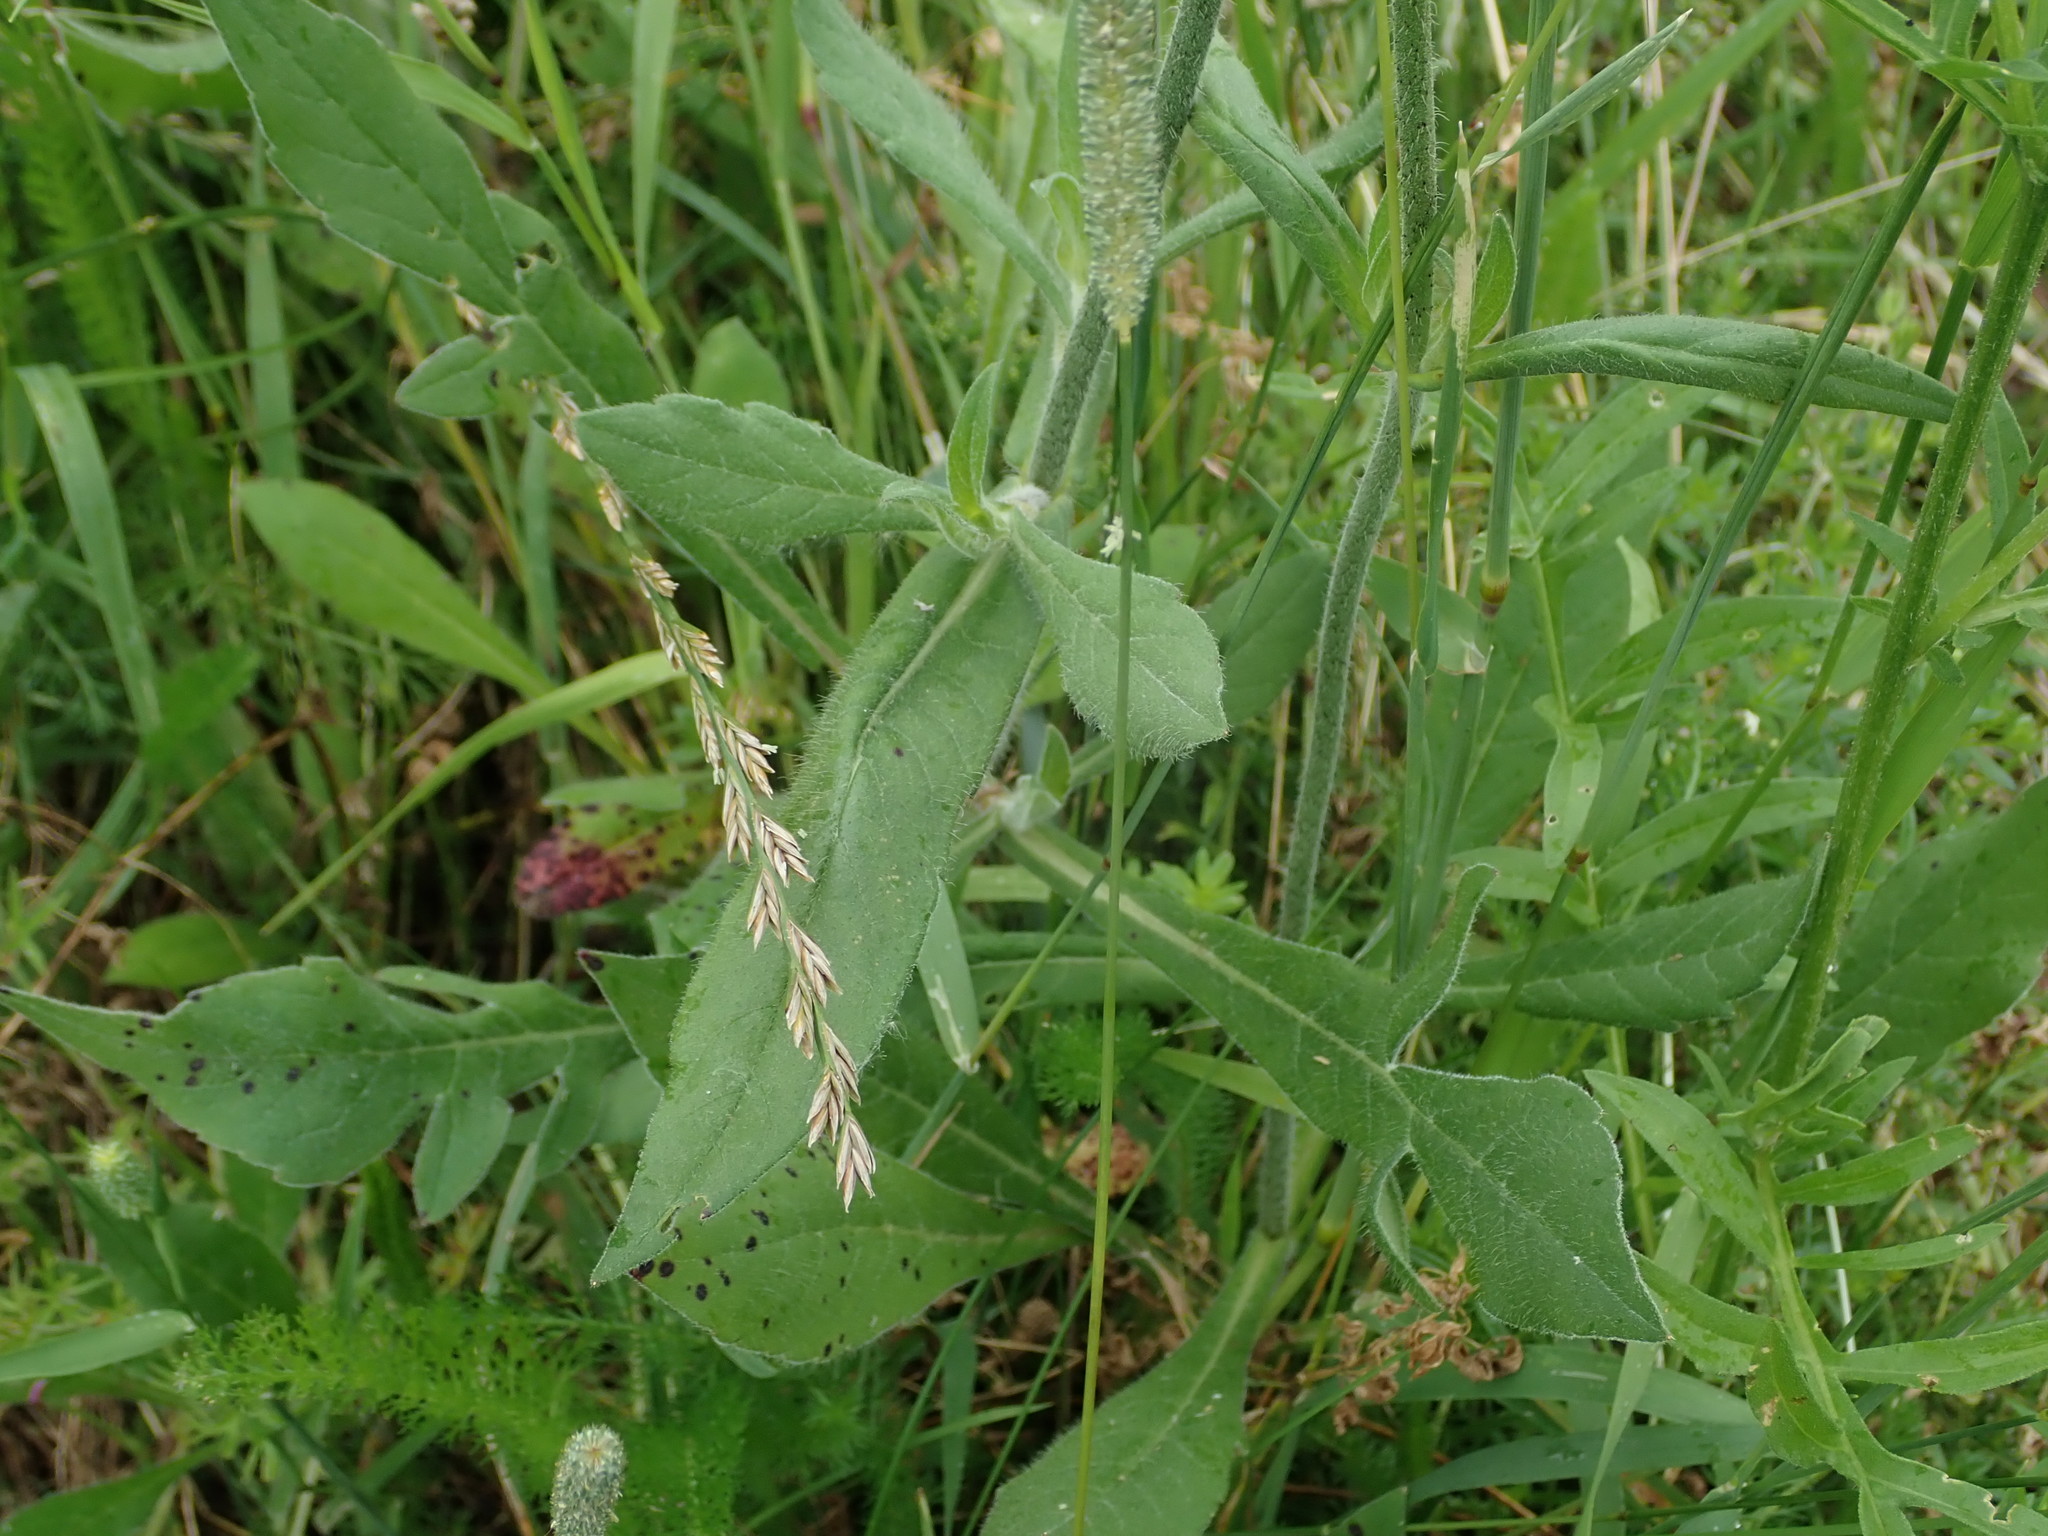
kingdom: Plantae
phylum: Tracheophyta
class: Magnoliopsida
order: Dipsacales
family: Caprifoliaceae
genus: Knautia
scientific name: Knautia arvensis
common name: Field scabiosa
